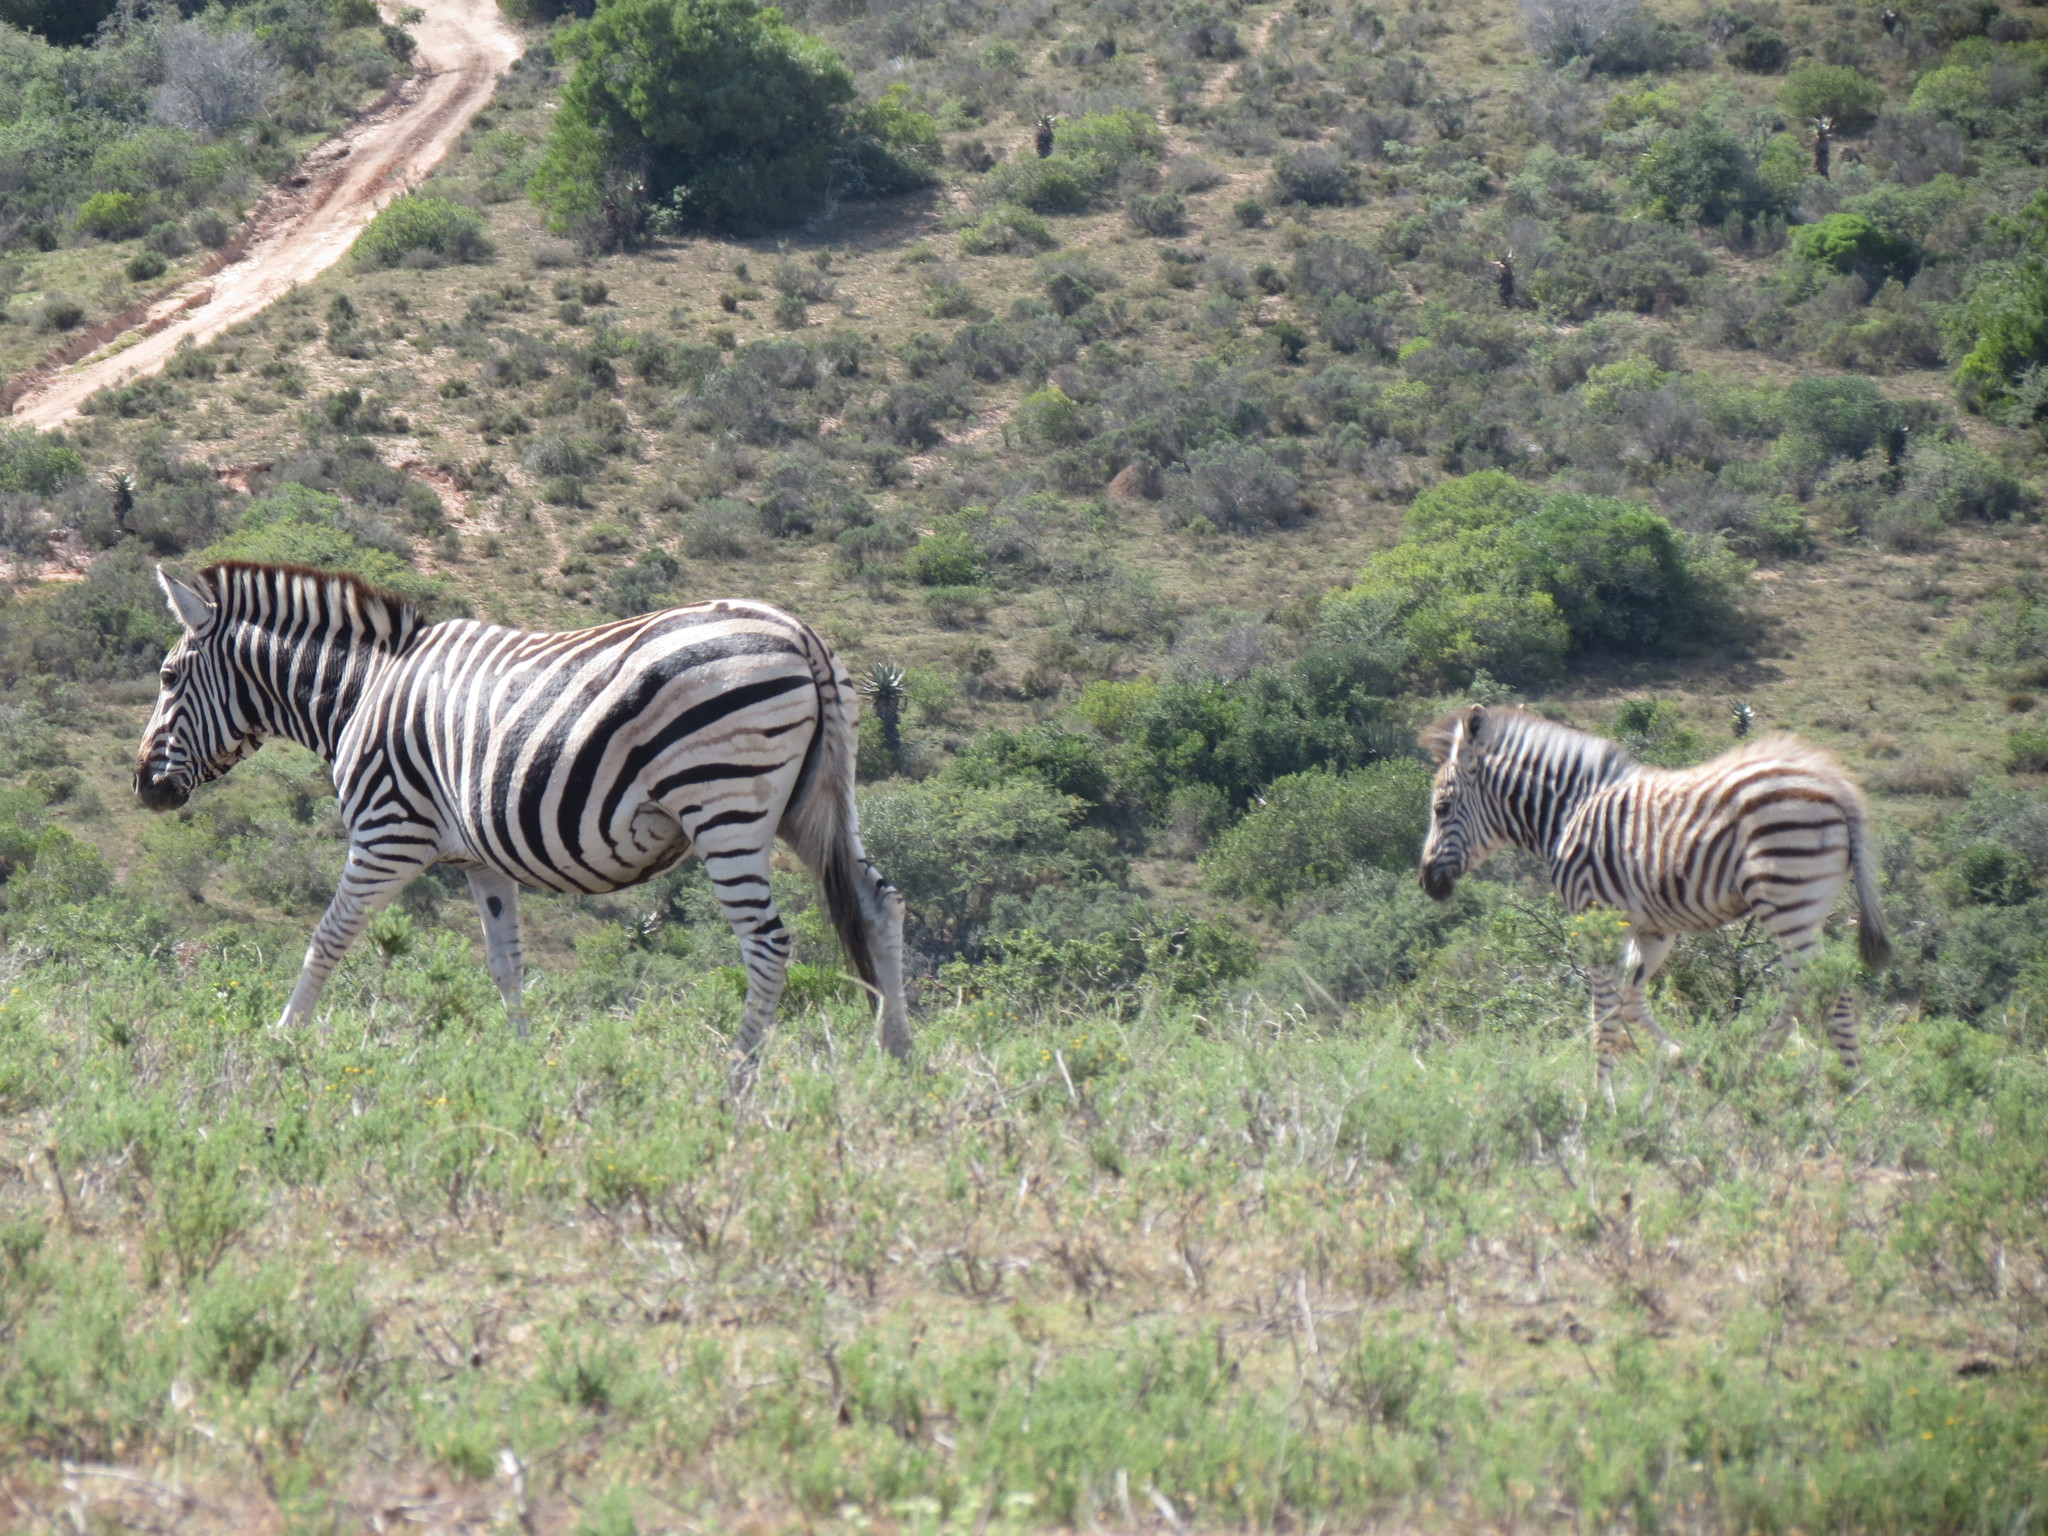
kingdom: Animalia
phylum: Chordata
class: Mammalia
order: Perissodactyla
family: Equidae
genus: Equus
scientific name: Equus quagga
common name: Plains zebra
